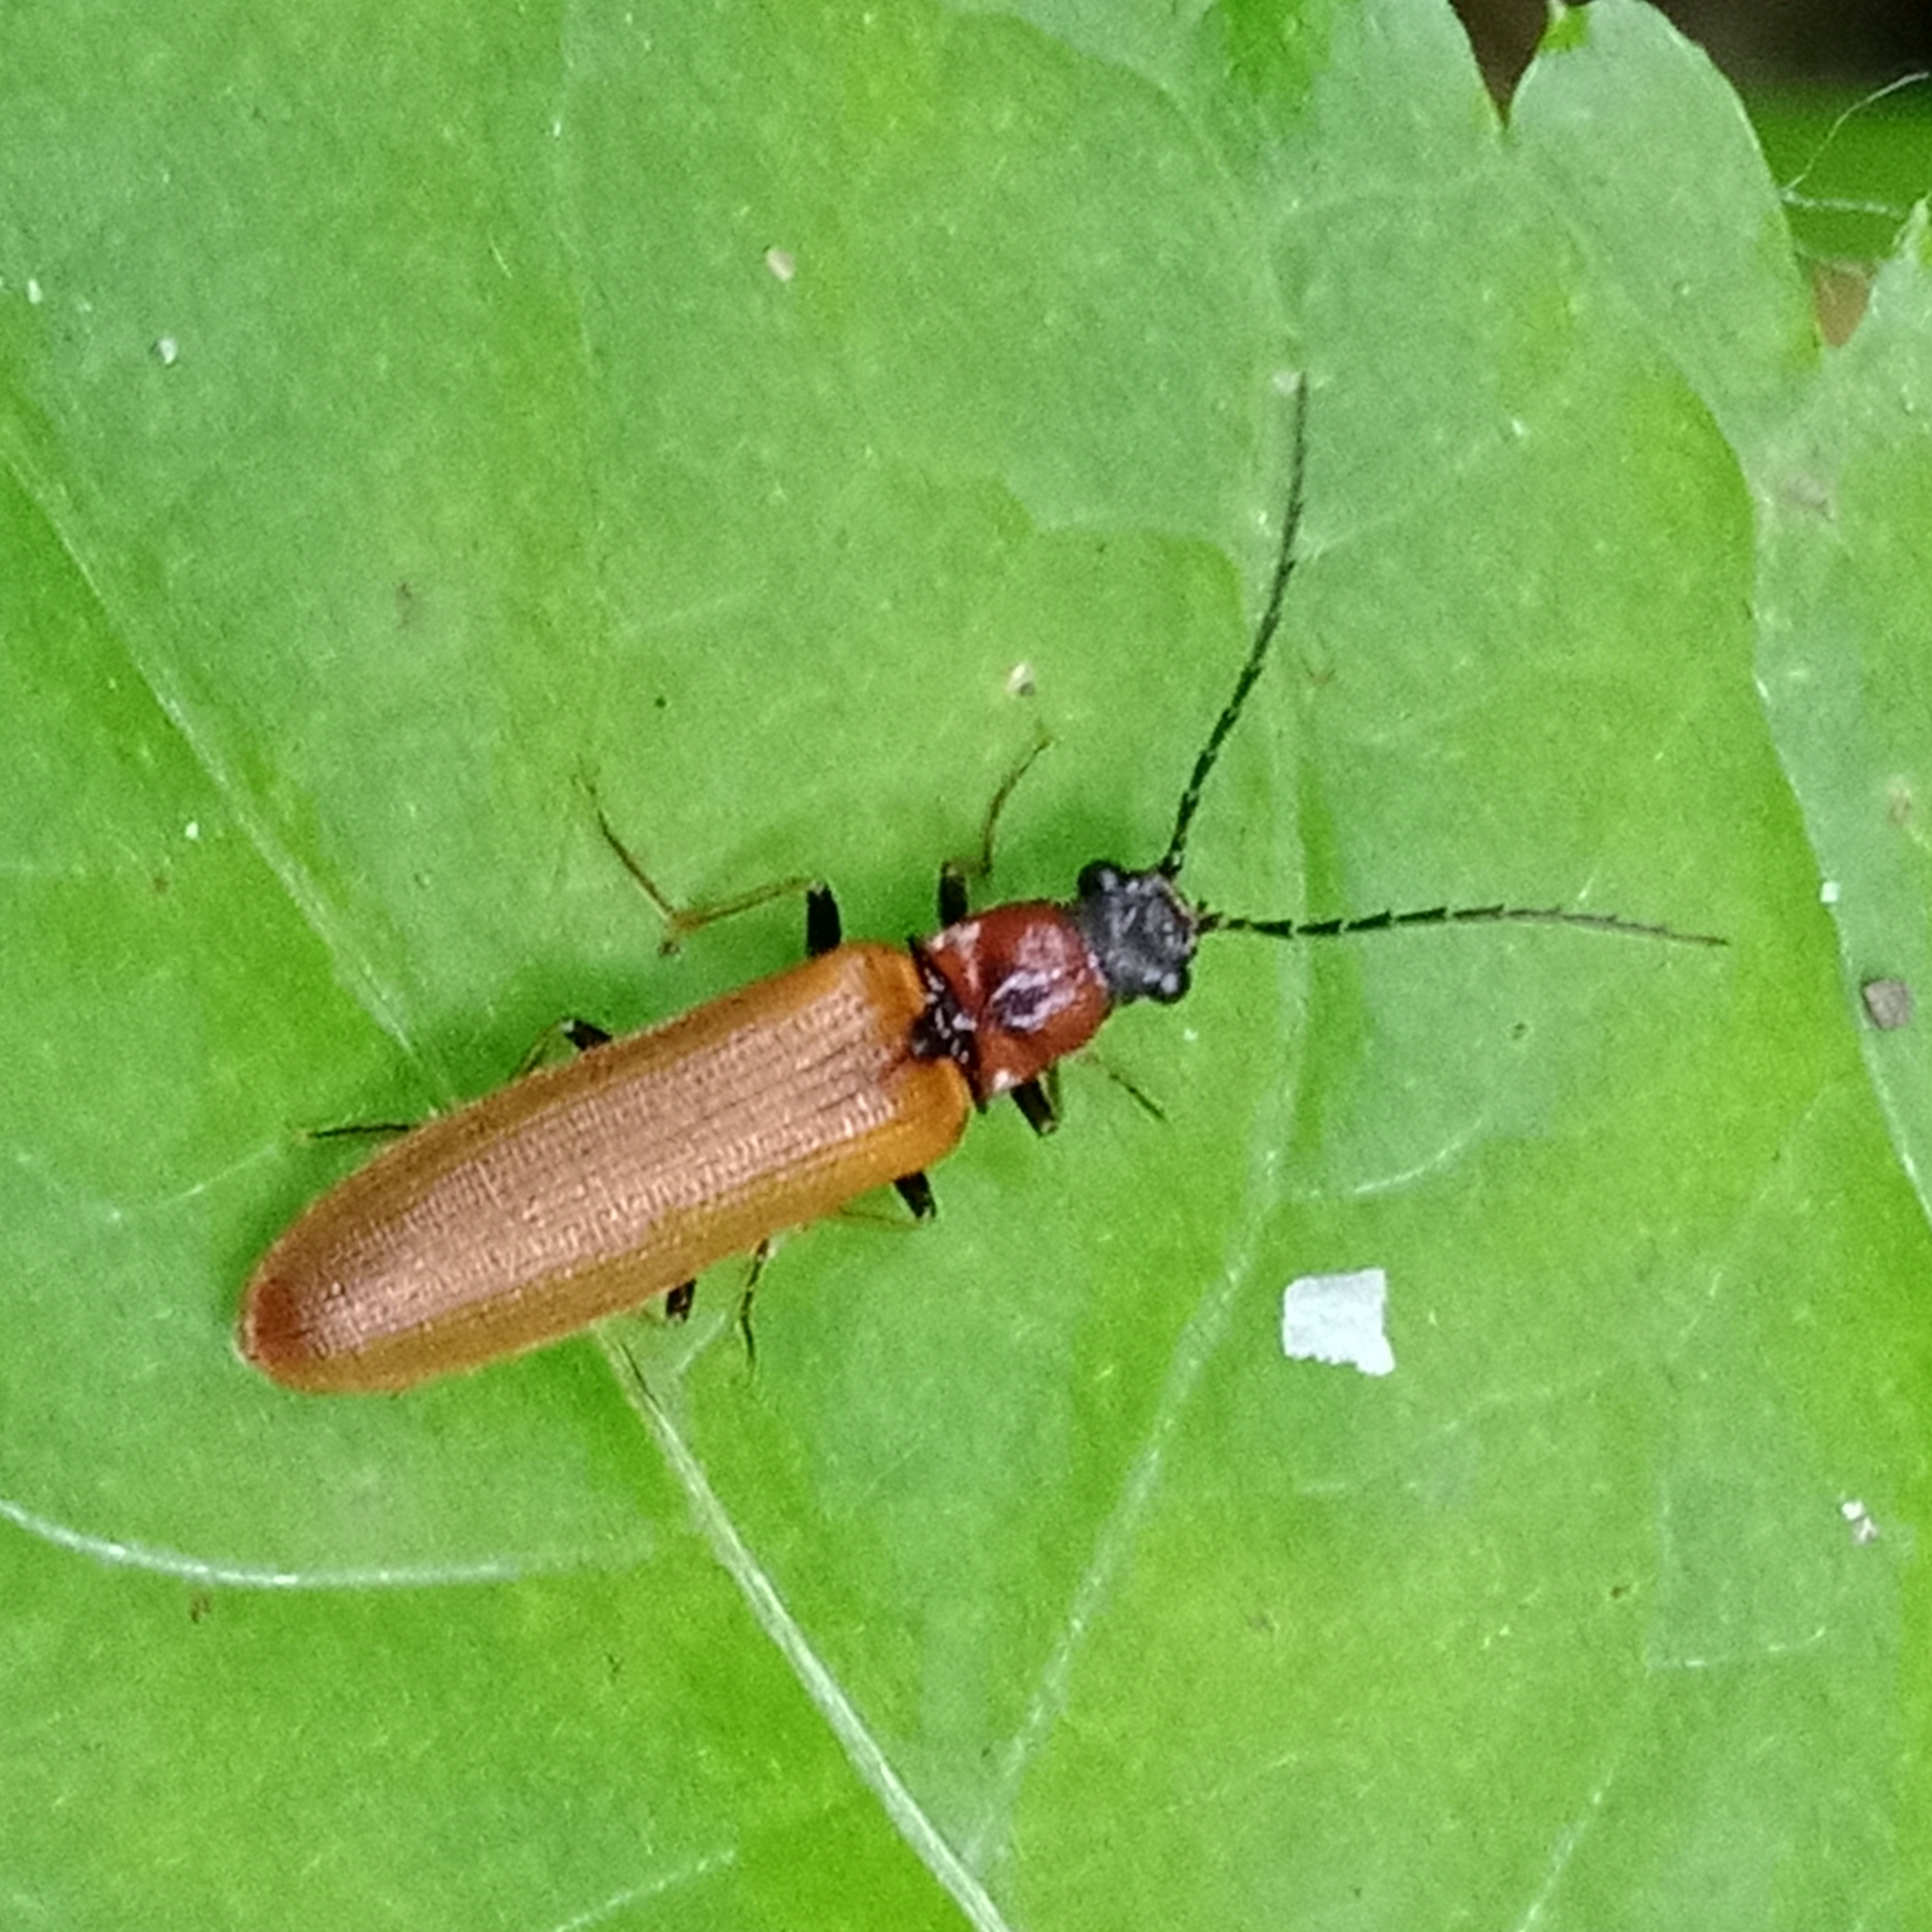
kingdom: Animalia
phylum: Arthropoda
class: Insecta
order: Coleoptera
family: Elateridae
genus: Denticollis
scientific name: Denticollis linearis
